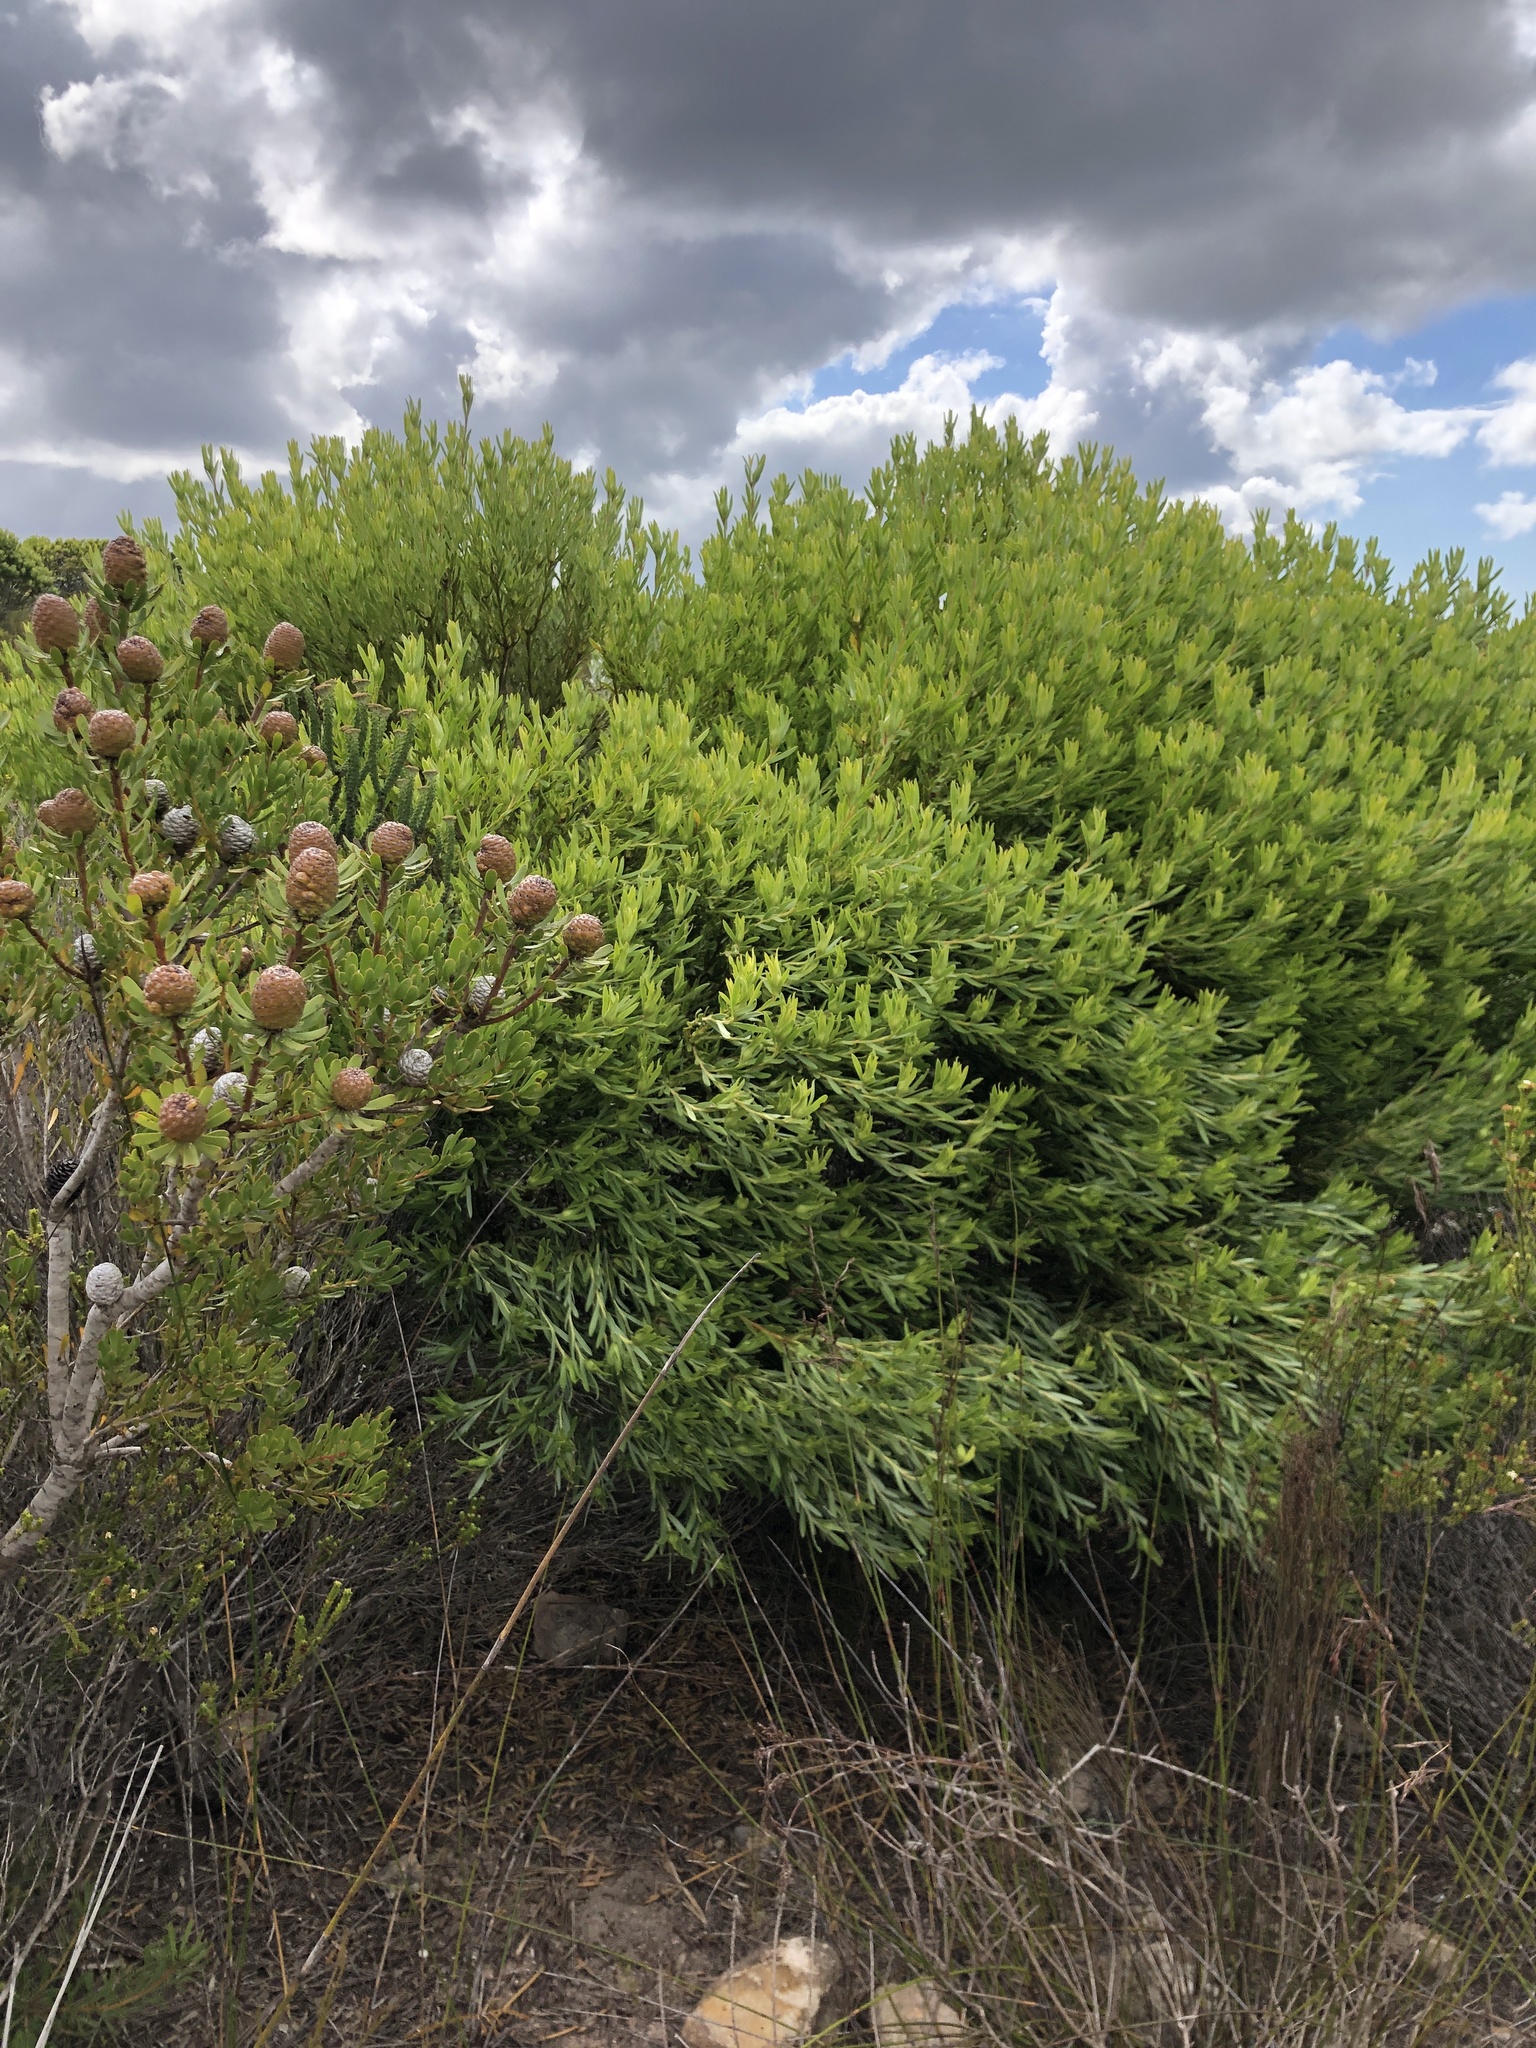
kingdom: Plantae
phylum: Tracheophyta
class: Magnoliopsida
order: Proteales
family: Proteaceae
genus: Leucadendron
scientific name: Leucadendron meridianum
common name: Limestone conebush
